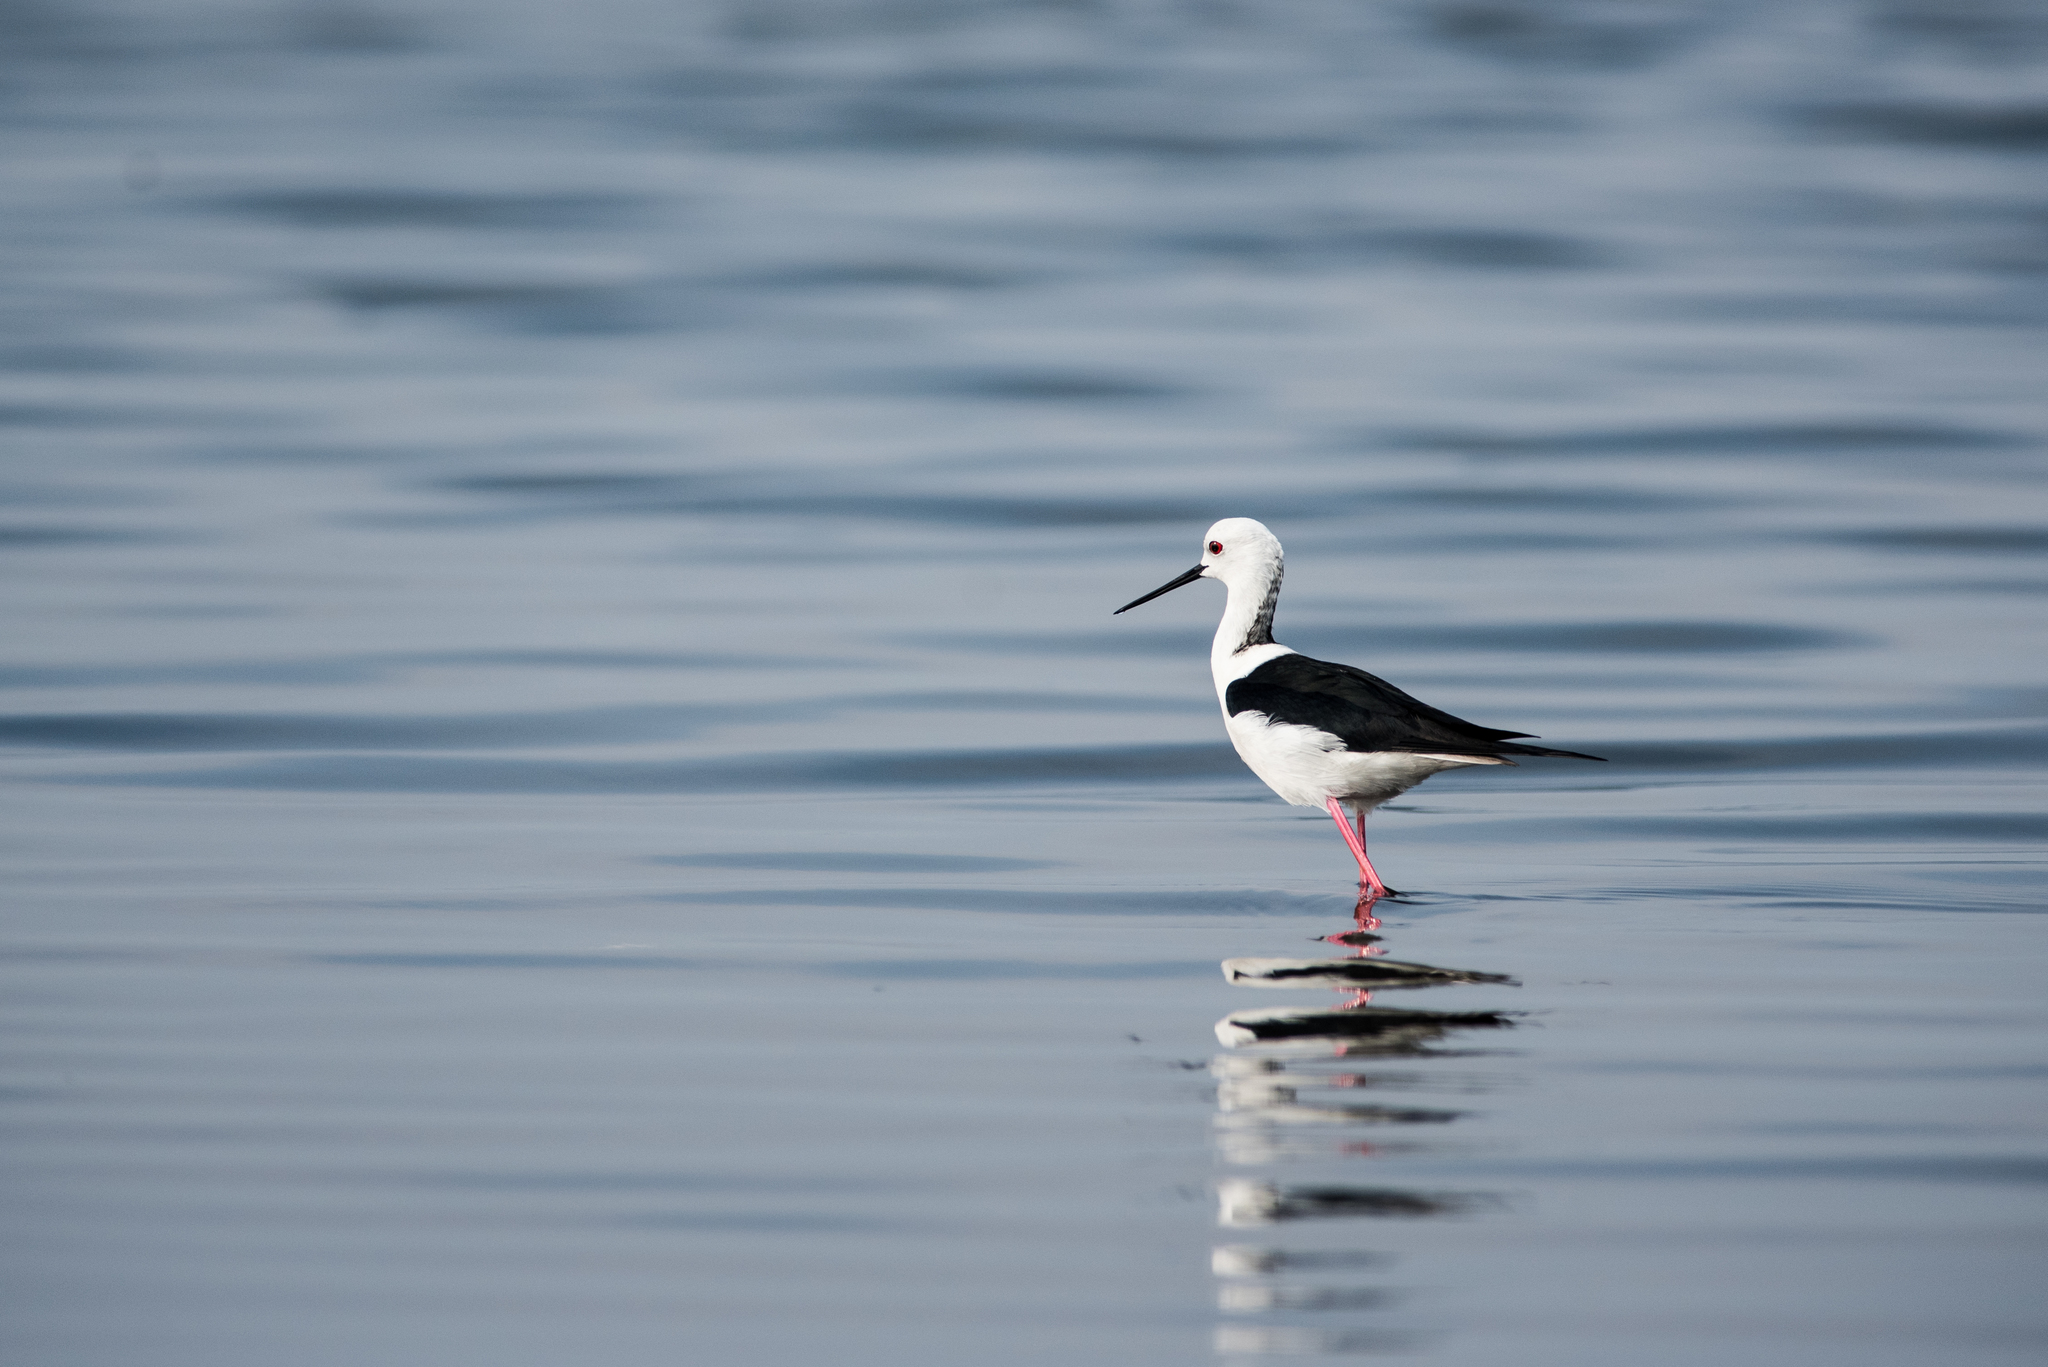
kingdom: Animalia
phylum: Chordata
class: Aves
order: Charadriiformes
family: Recurvirostridae
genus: Himantopus
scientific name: Himantopus himantopus
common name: Black-winged stilt
